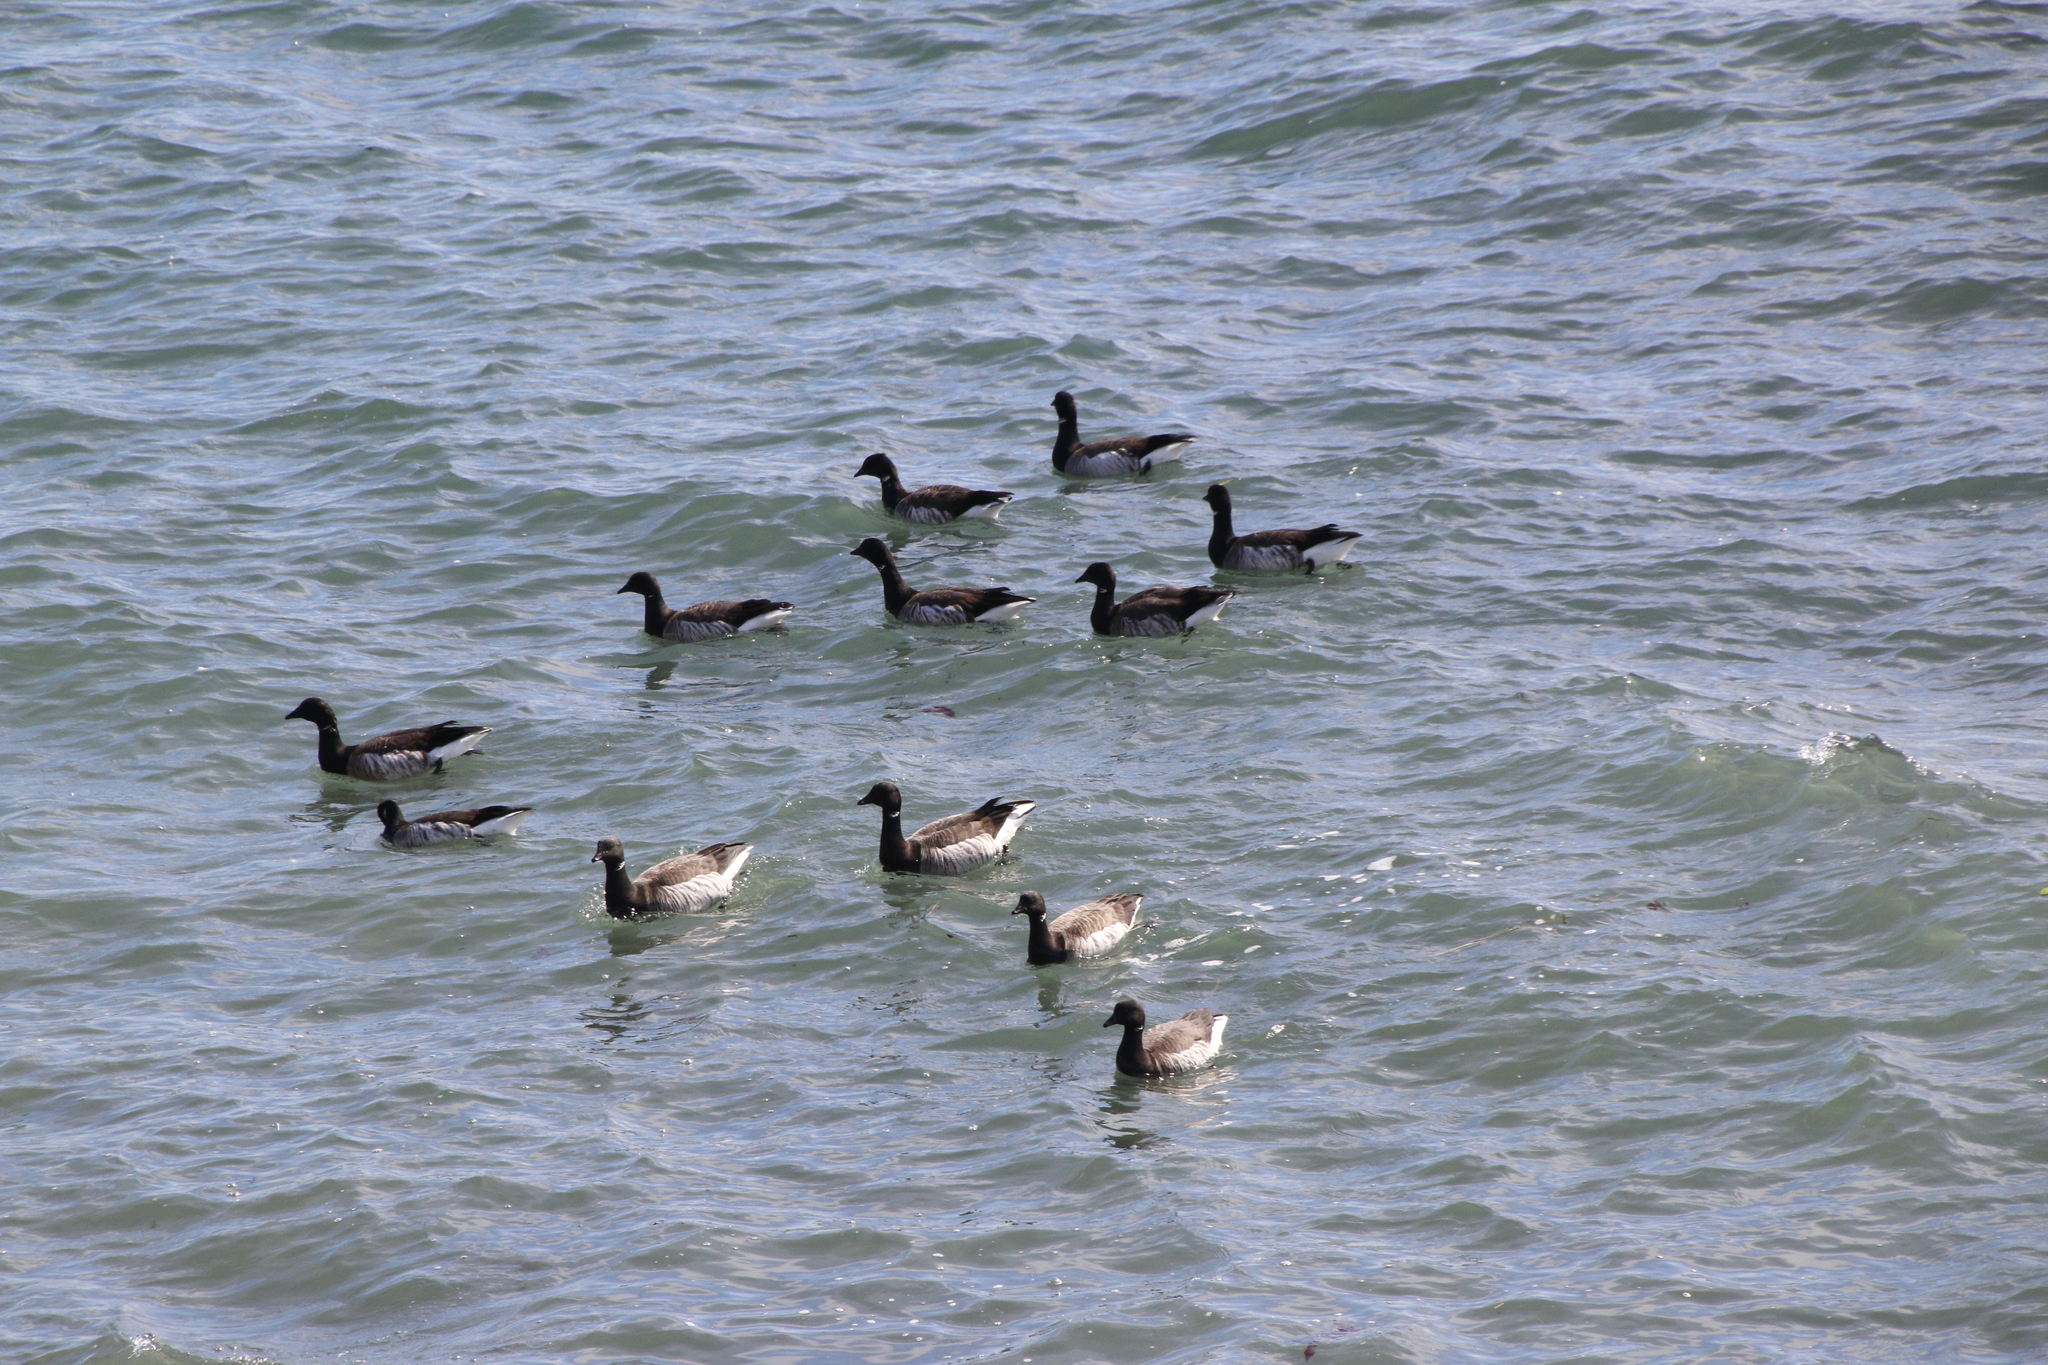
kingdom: Animalia
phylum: Chordata
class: Aves
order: Anseriformes
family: Anatidae
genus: Branta
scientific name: Branta bernicla
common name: Brant goose
